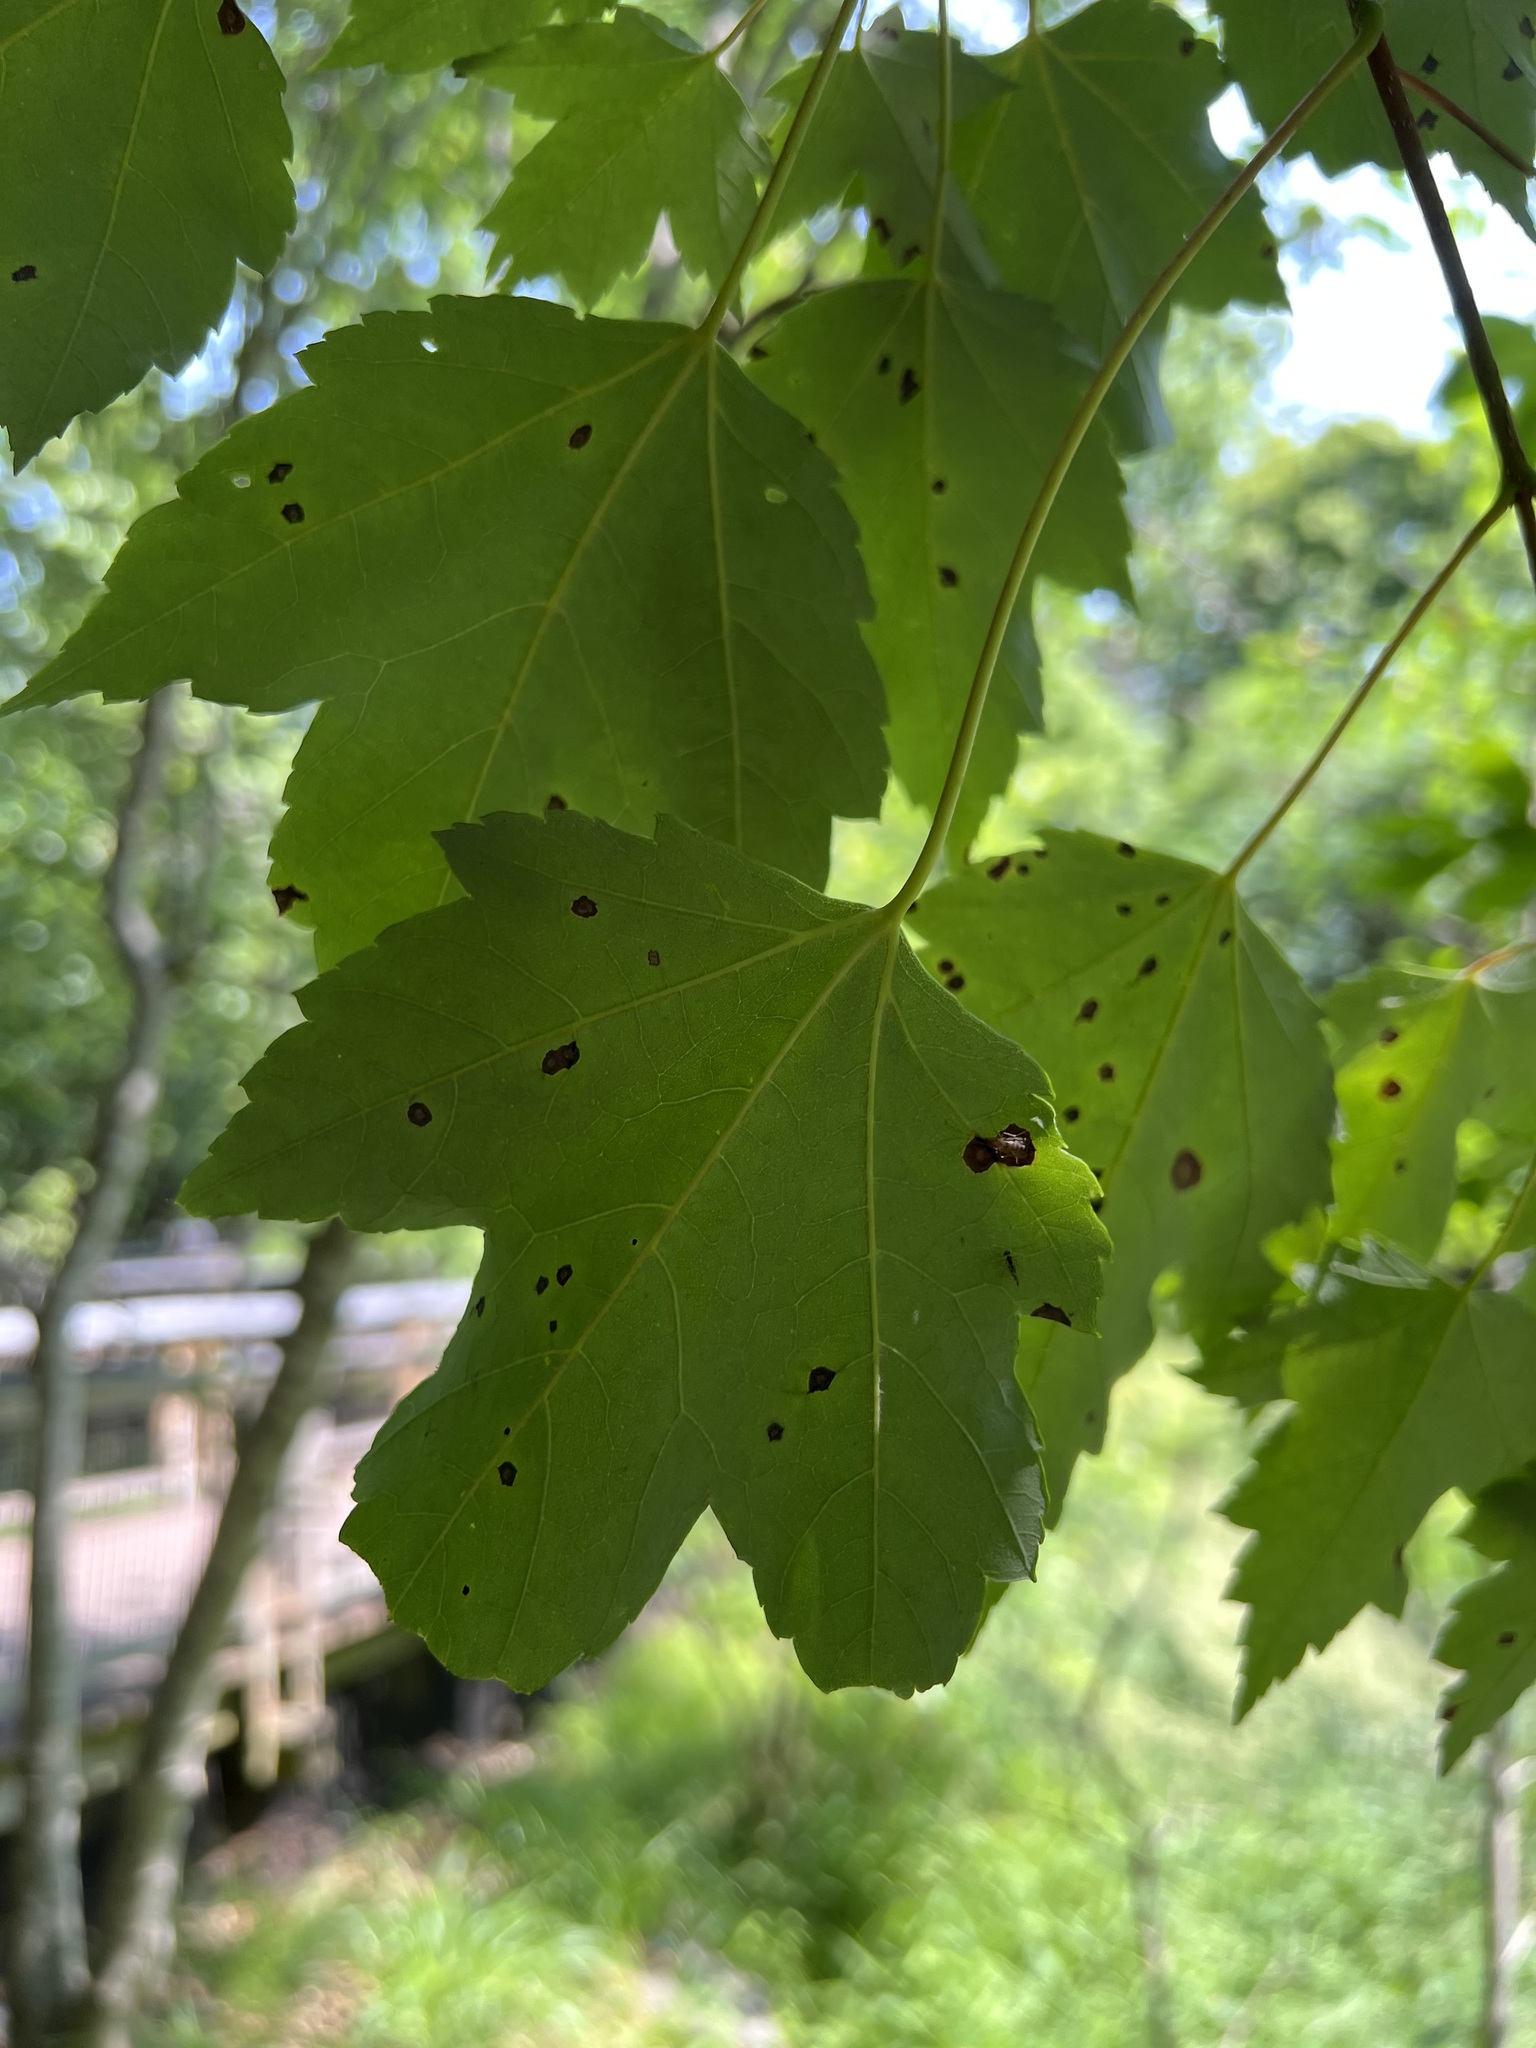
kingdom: Plantae
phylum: Tracheophyta
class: Magnoliopsida
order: Sapindales
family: Sapindaceae
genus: Acer
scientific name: Acer rubrum
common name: Red maple
